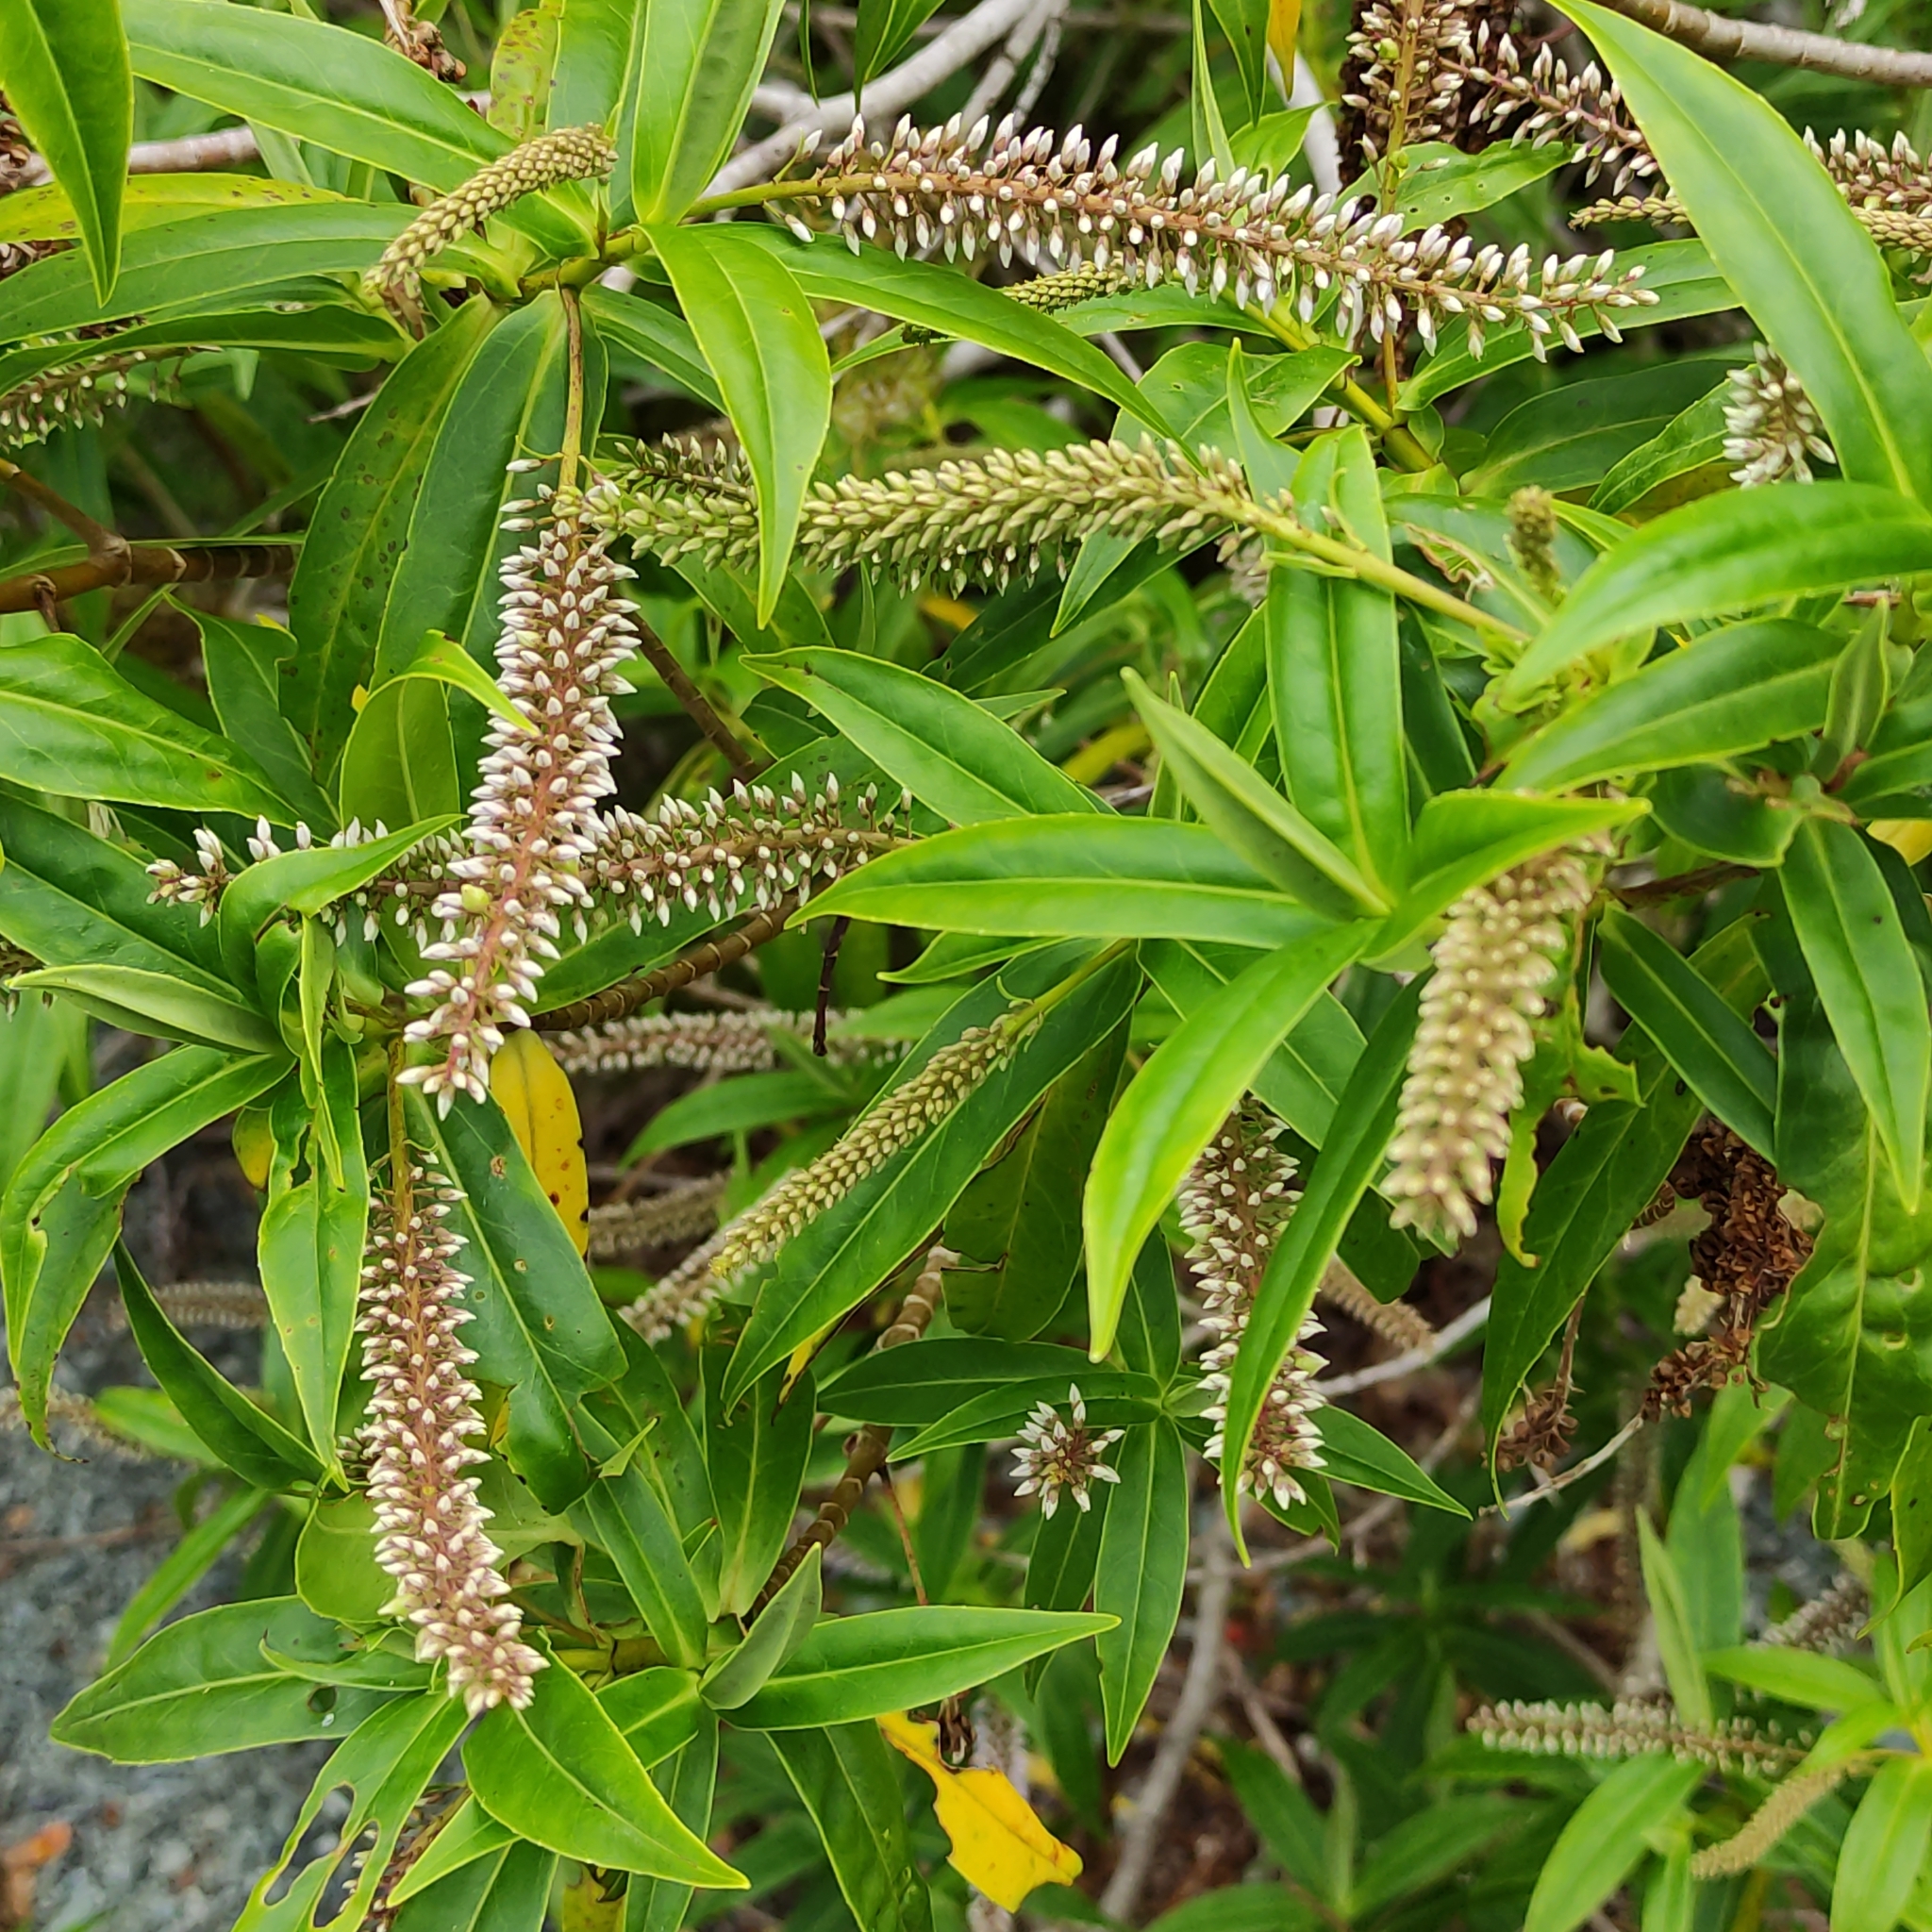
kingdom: Plantae
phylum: Tracheophyta
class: Magnoliopsida
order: Lamiales
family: Plantaginaceae
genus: Veronica
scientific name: Veronica salicifolia
